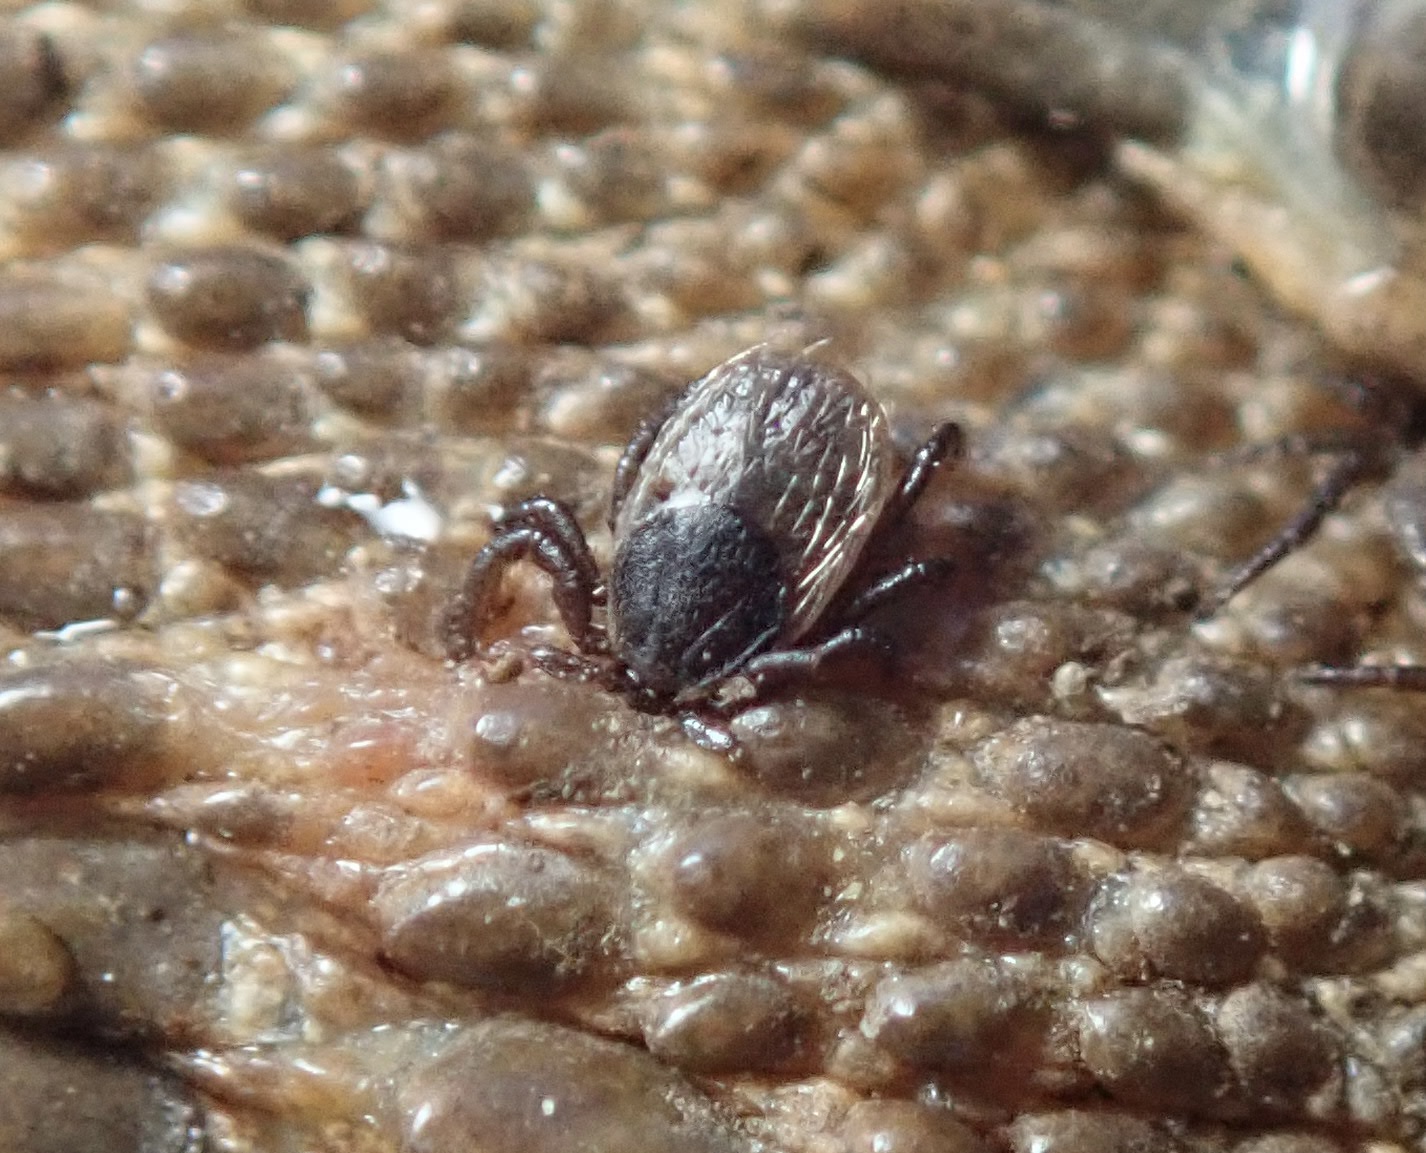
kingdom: Animalia
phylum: Arthropoda
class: Arachnida
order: Ixodida
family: Ixodidae
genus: Ixodes
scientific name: Ixodes pacificus
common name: California black-legged tick
